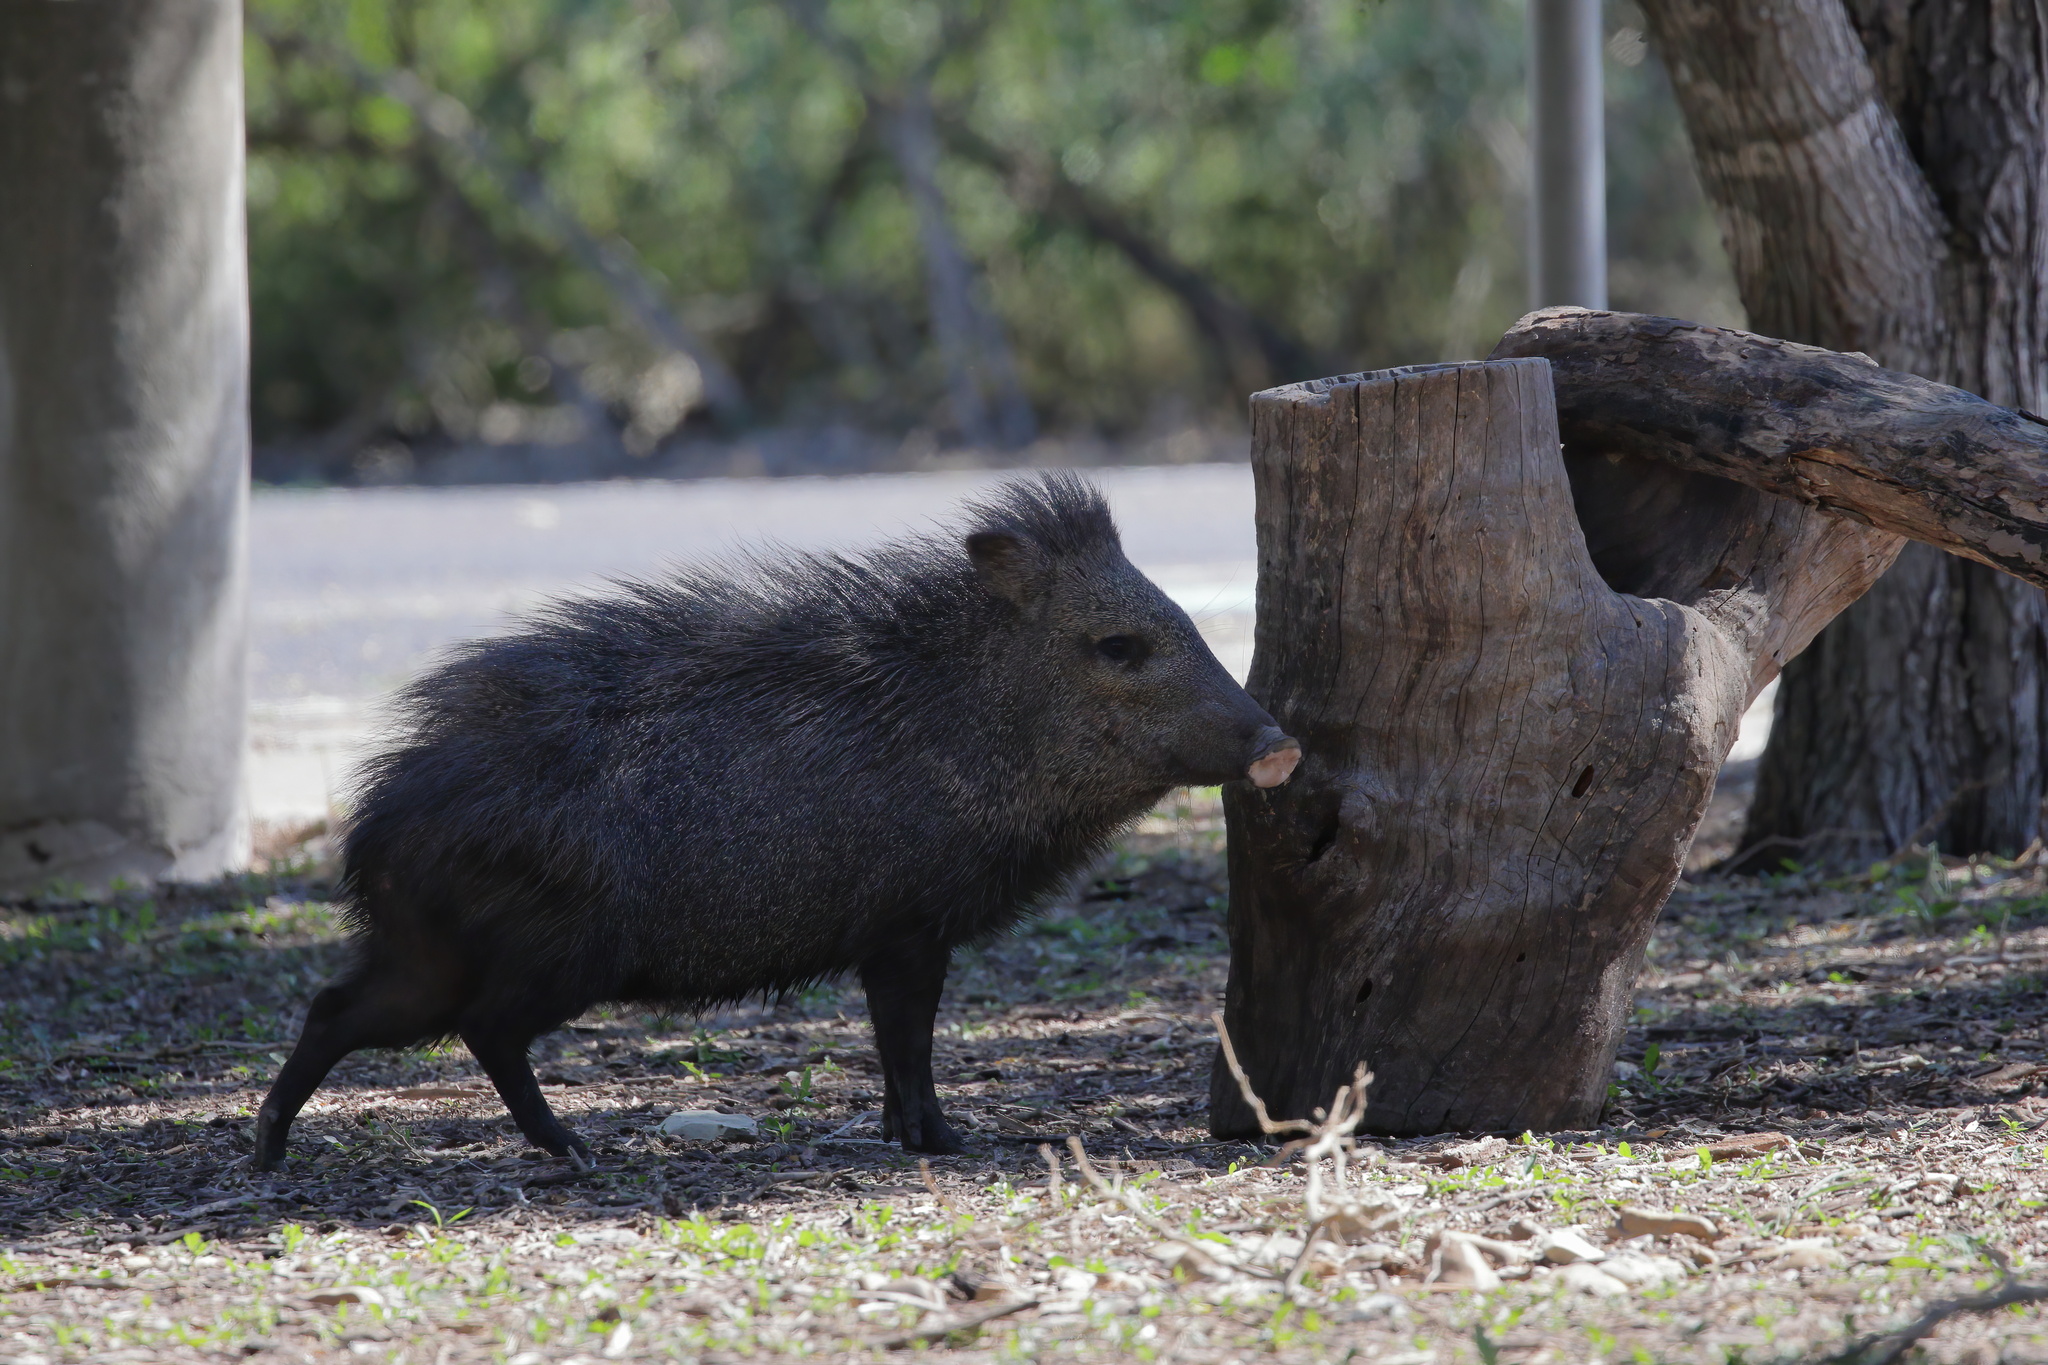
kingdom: Animalia
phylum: Chordata
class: Mammalia
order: Artiodactyla
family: Tayassuidae
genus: Pecari
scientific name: Pecari tajacu
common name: Collared peccary
